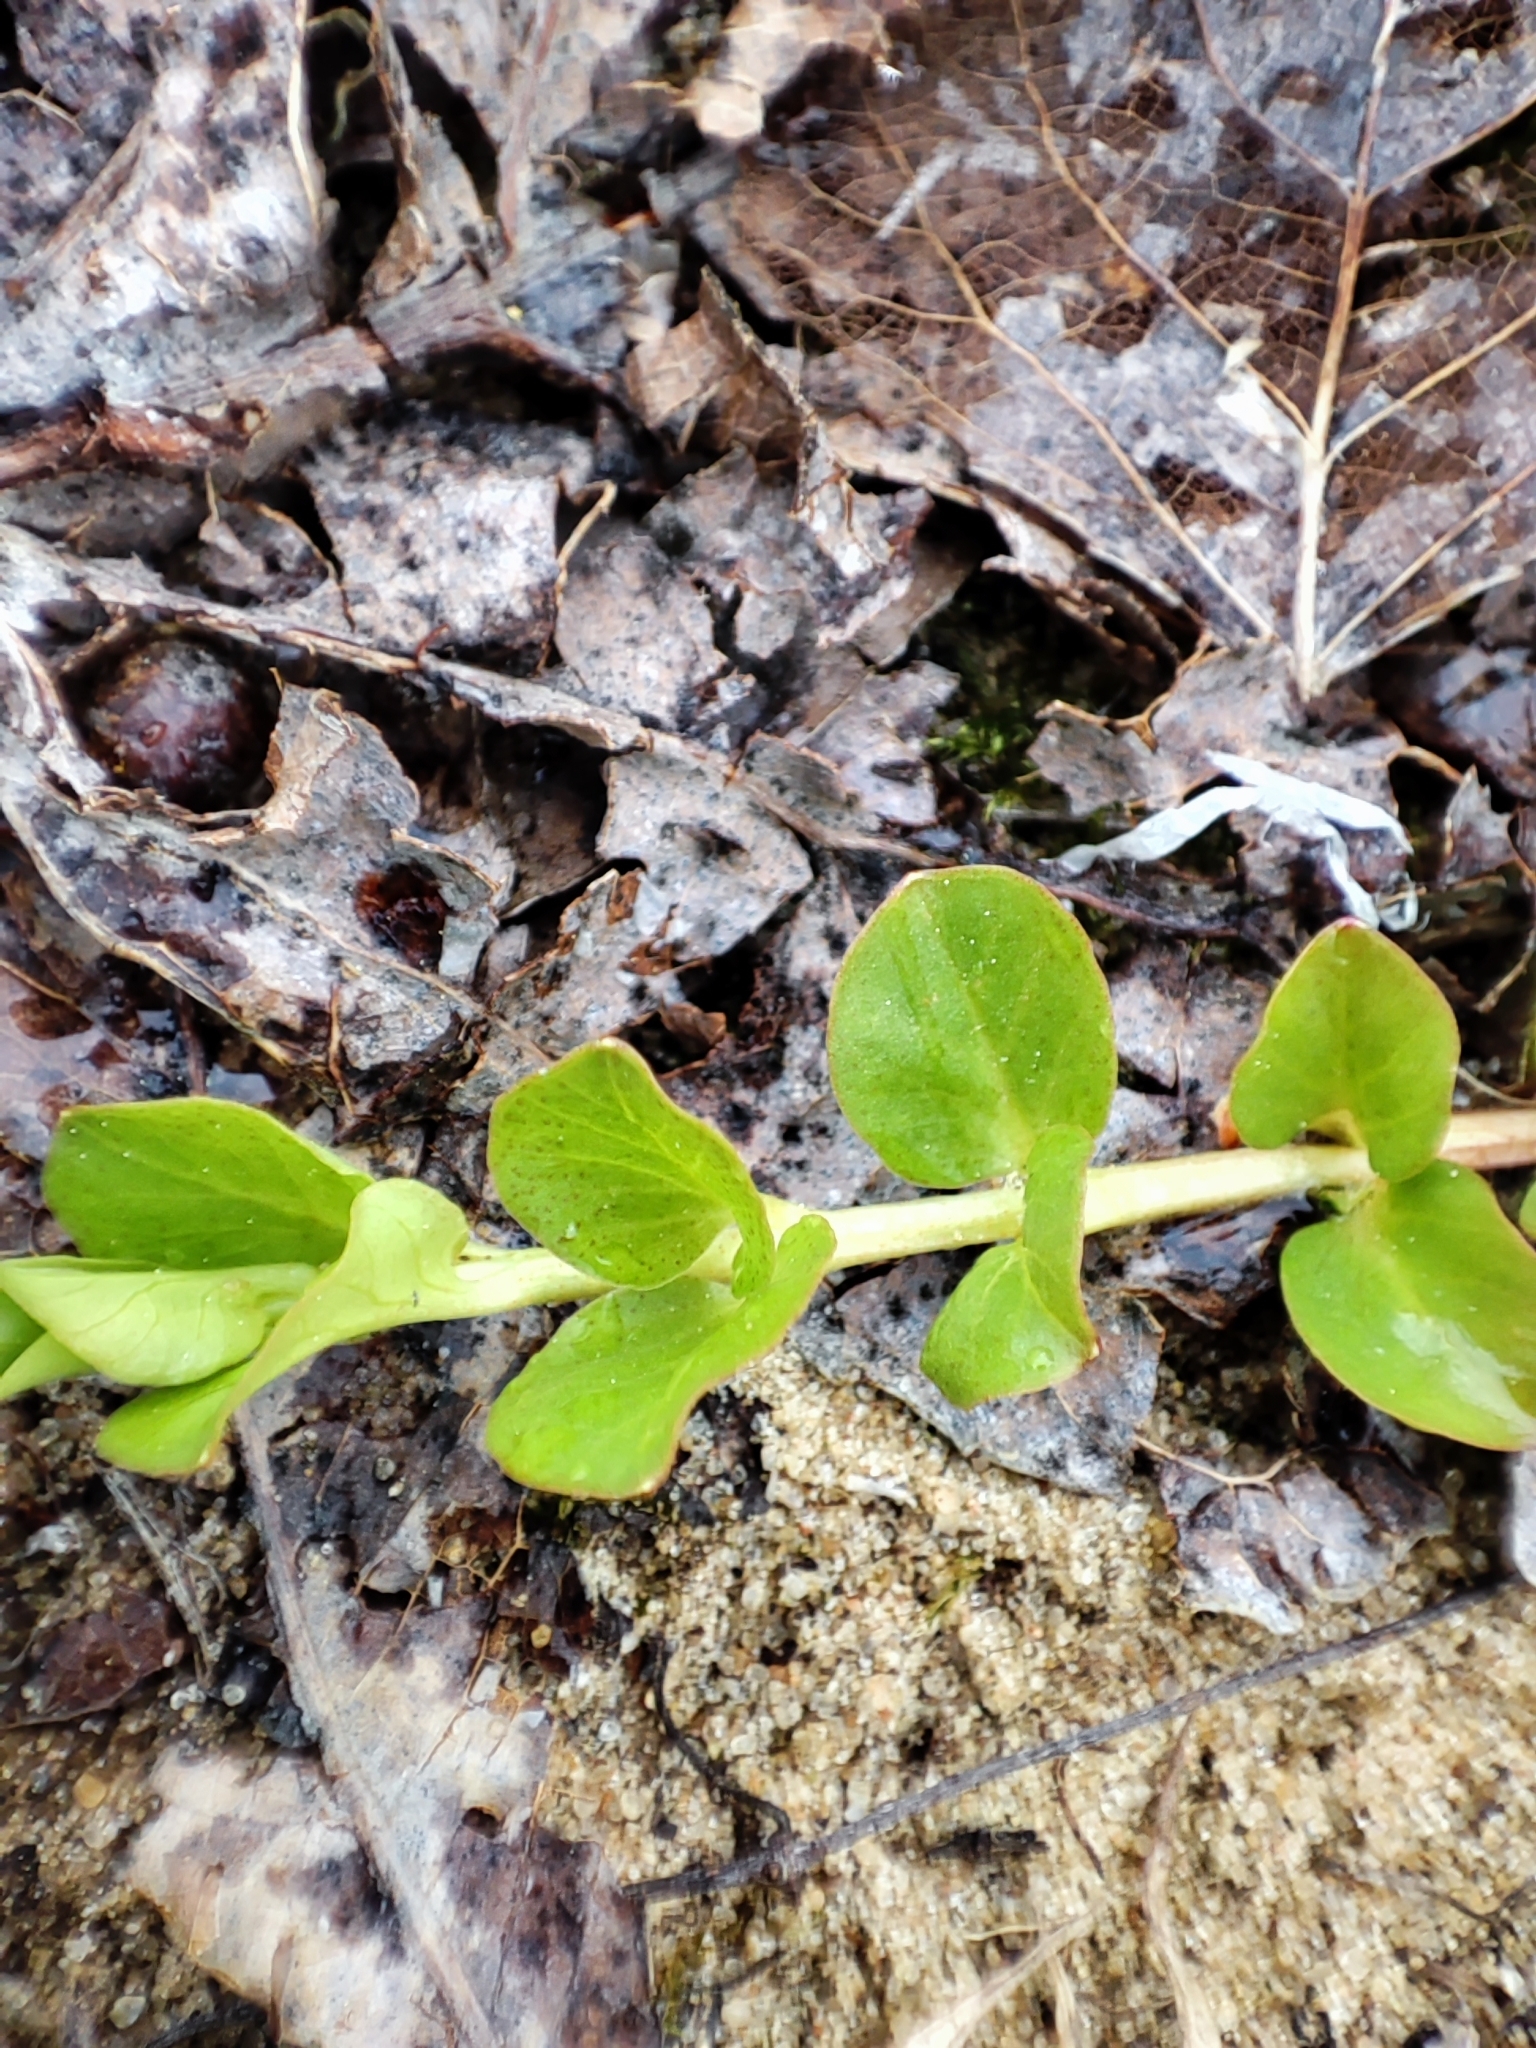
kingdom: Plantae
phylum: Tracheophyta
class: Magnoliopsida
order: Ericales
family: Primulaceae
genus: Lysimachia
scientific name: Lysimachia nummularia
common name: Moneywort
